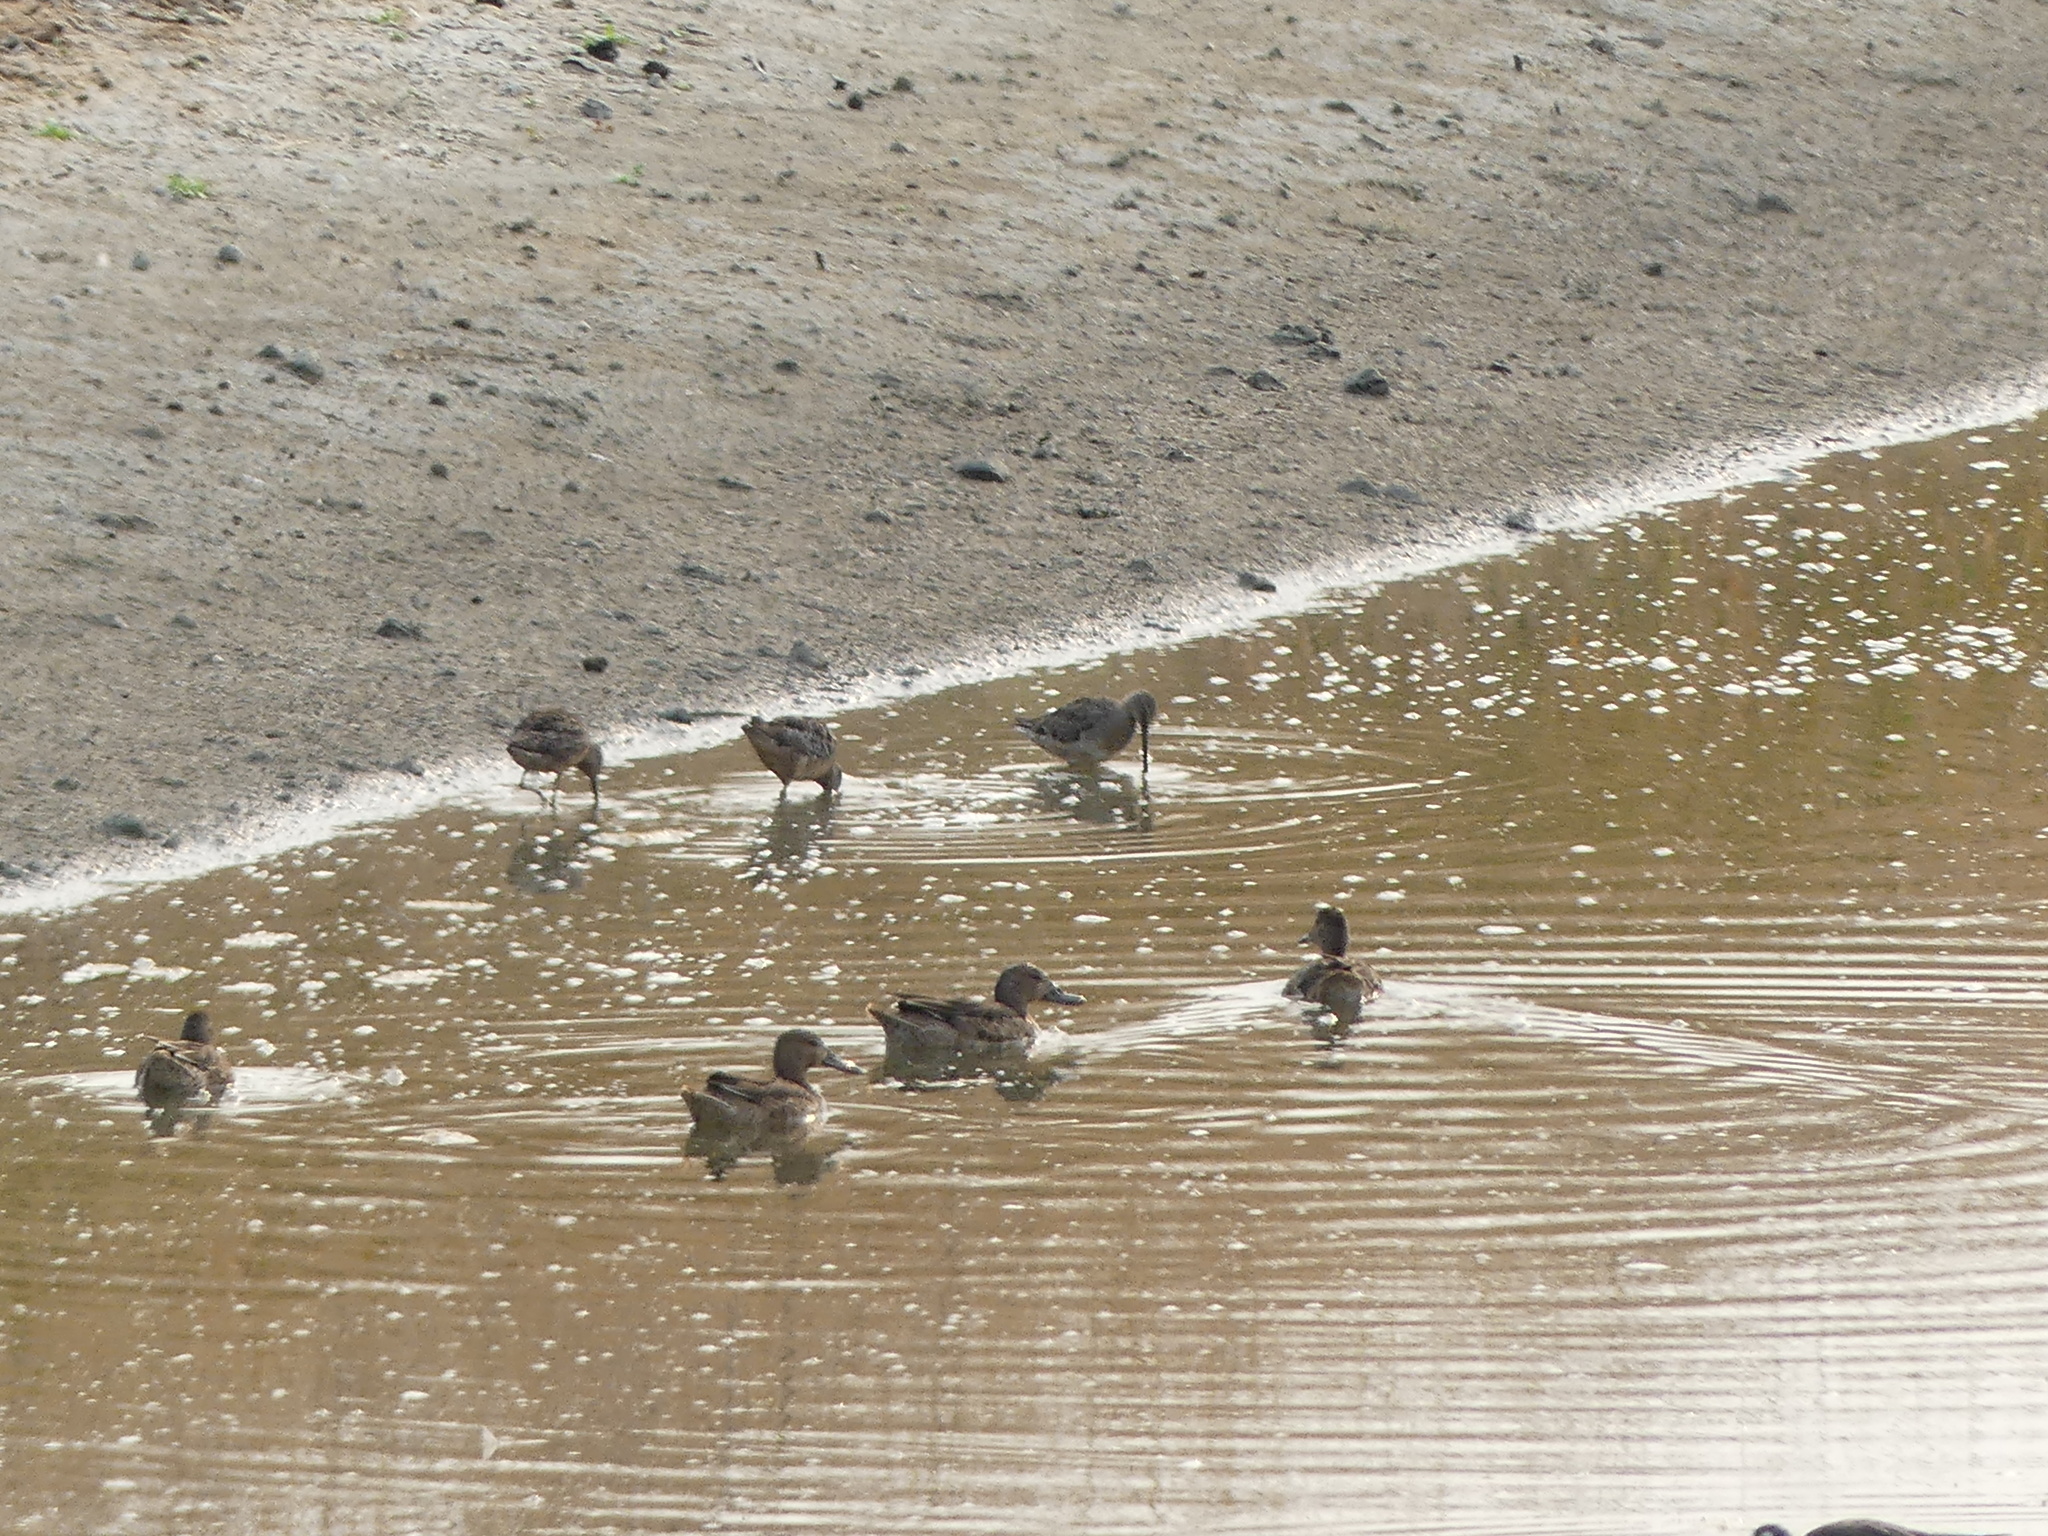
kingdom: Animalia
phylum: Chordata
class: Aves
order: Charadriiformes
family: Scolopacidae
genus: Limnodromus
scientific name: Limnodromus scolopaceus
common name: Long-billed dowitcher
